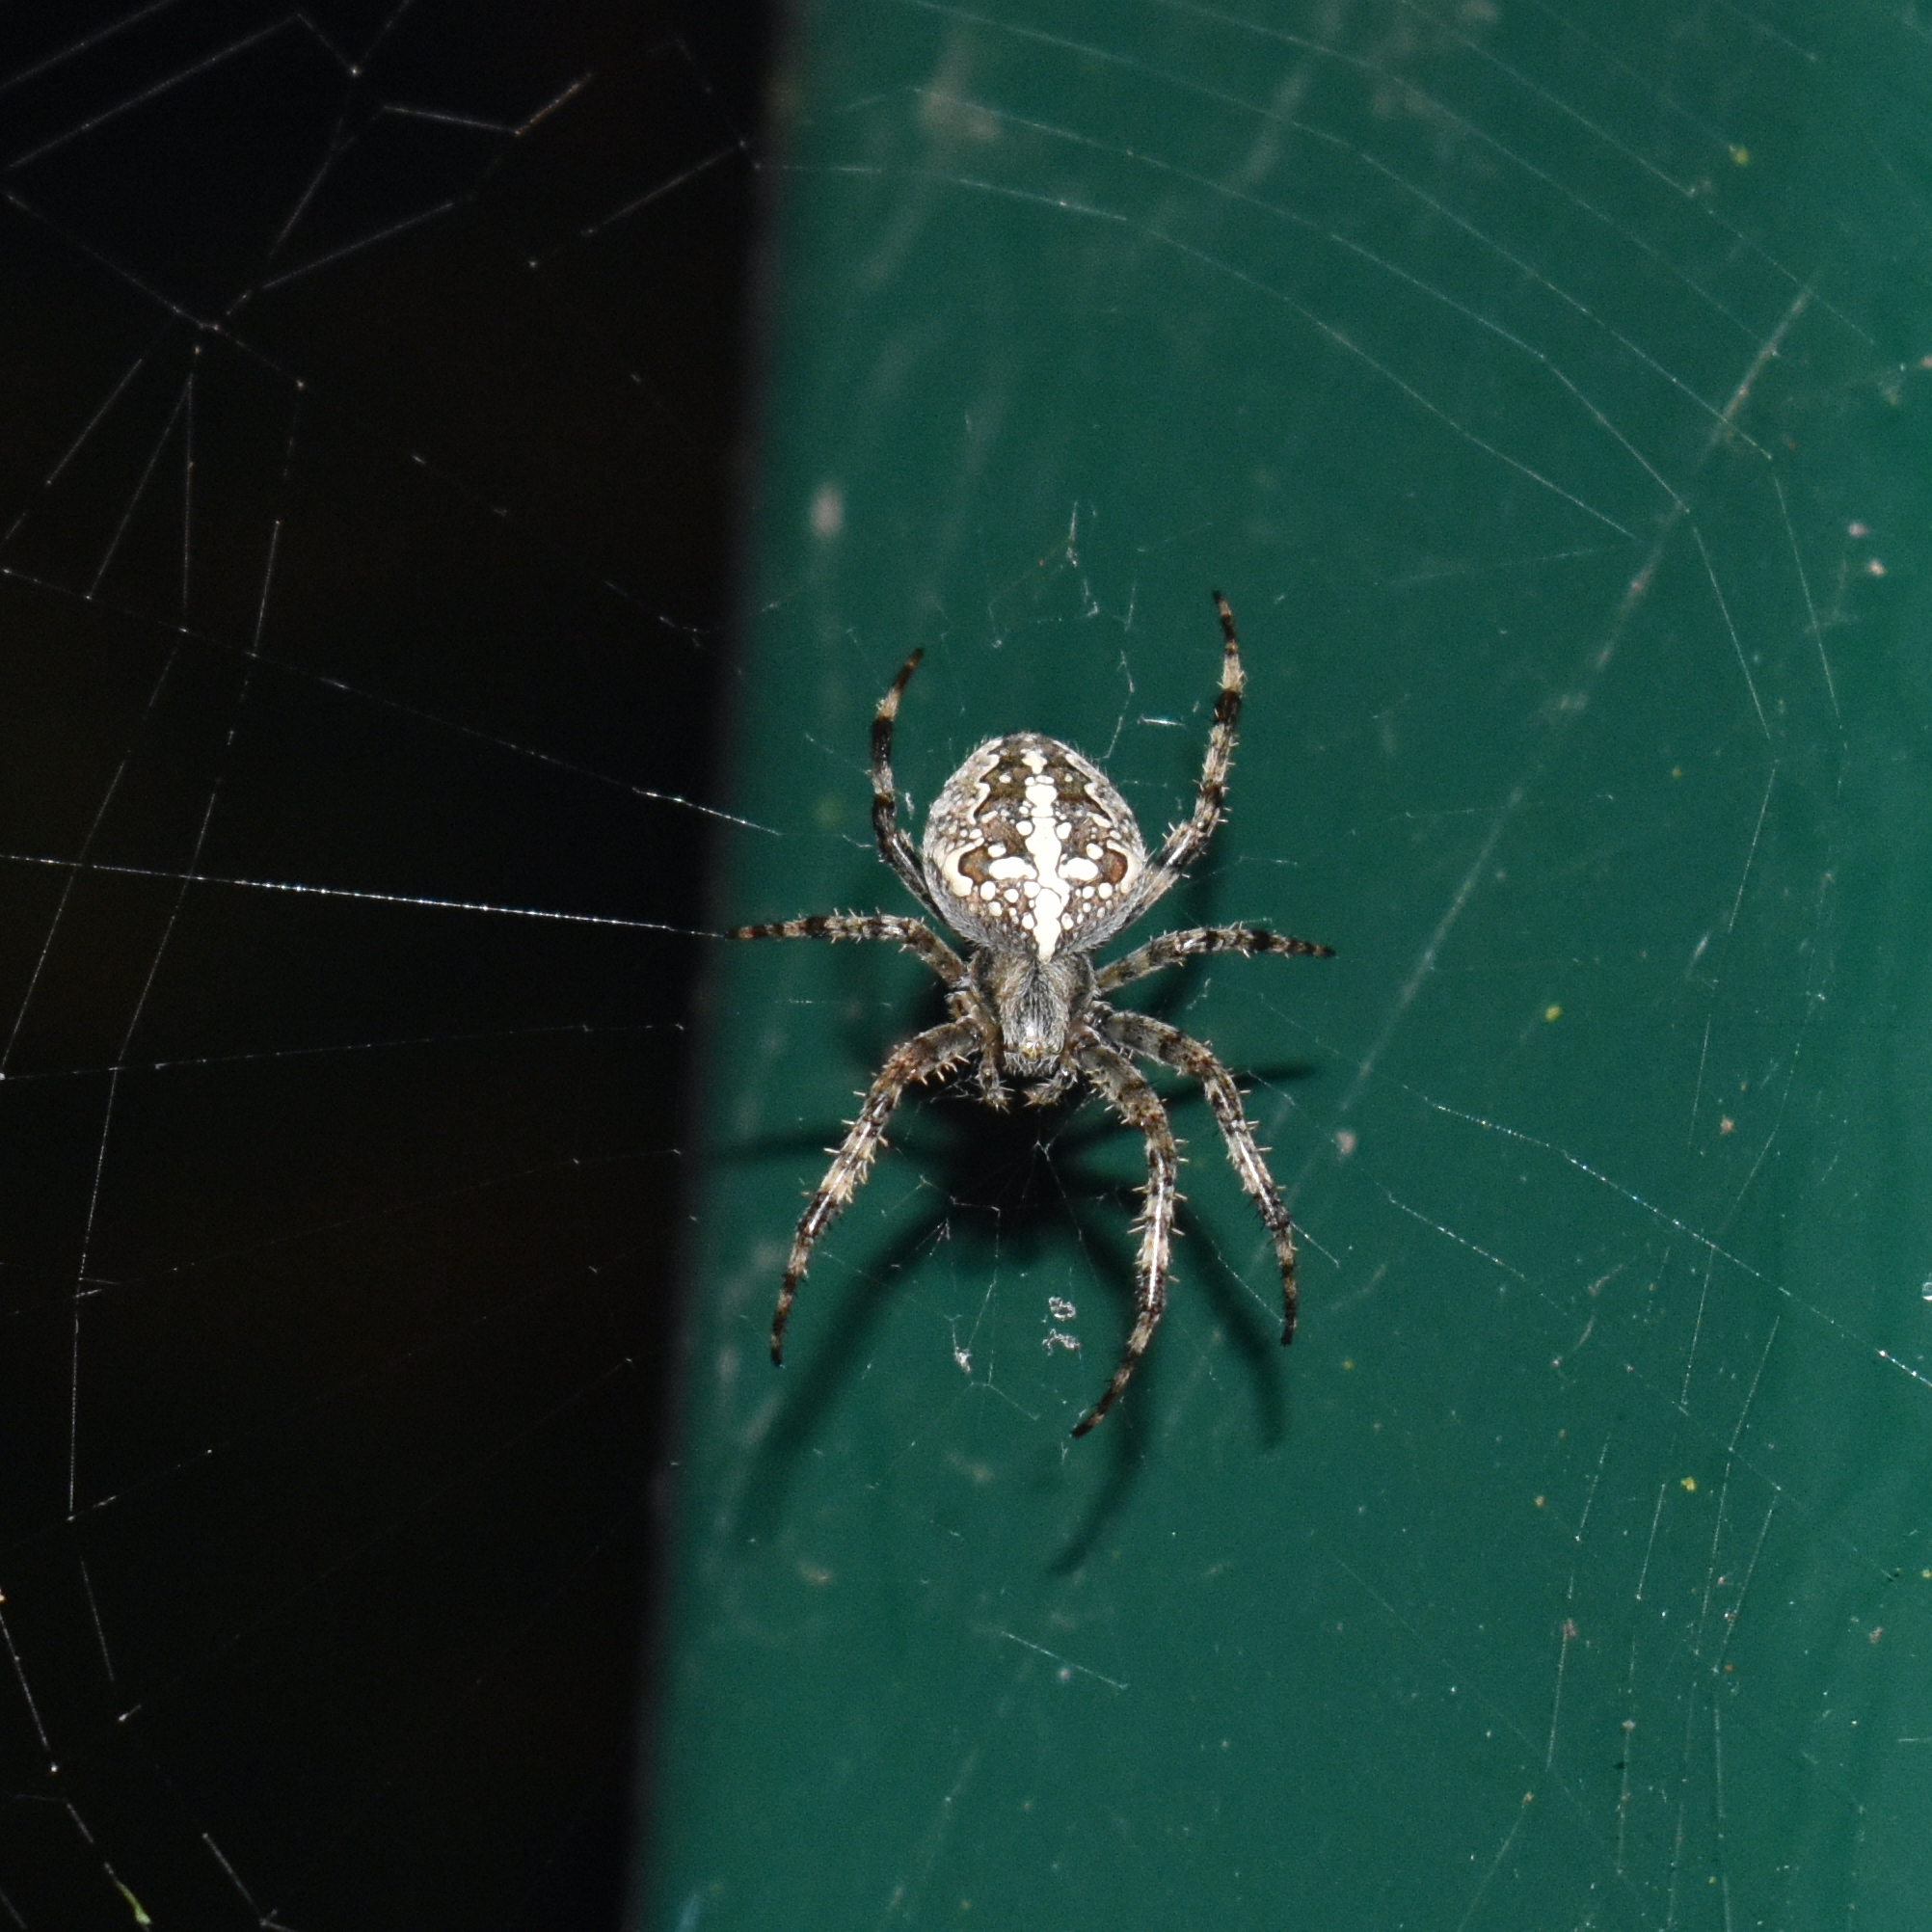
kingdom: Animalia
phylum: Arthropoda
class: Arachnida
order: Araneae
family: Araneidae
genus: Araneus
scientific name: Araneus diadematus
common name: Cross orbweaver
